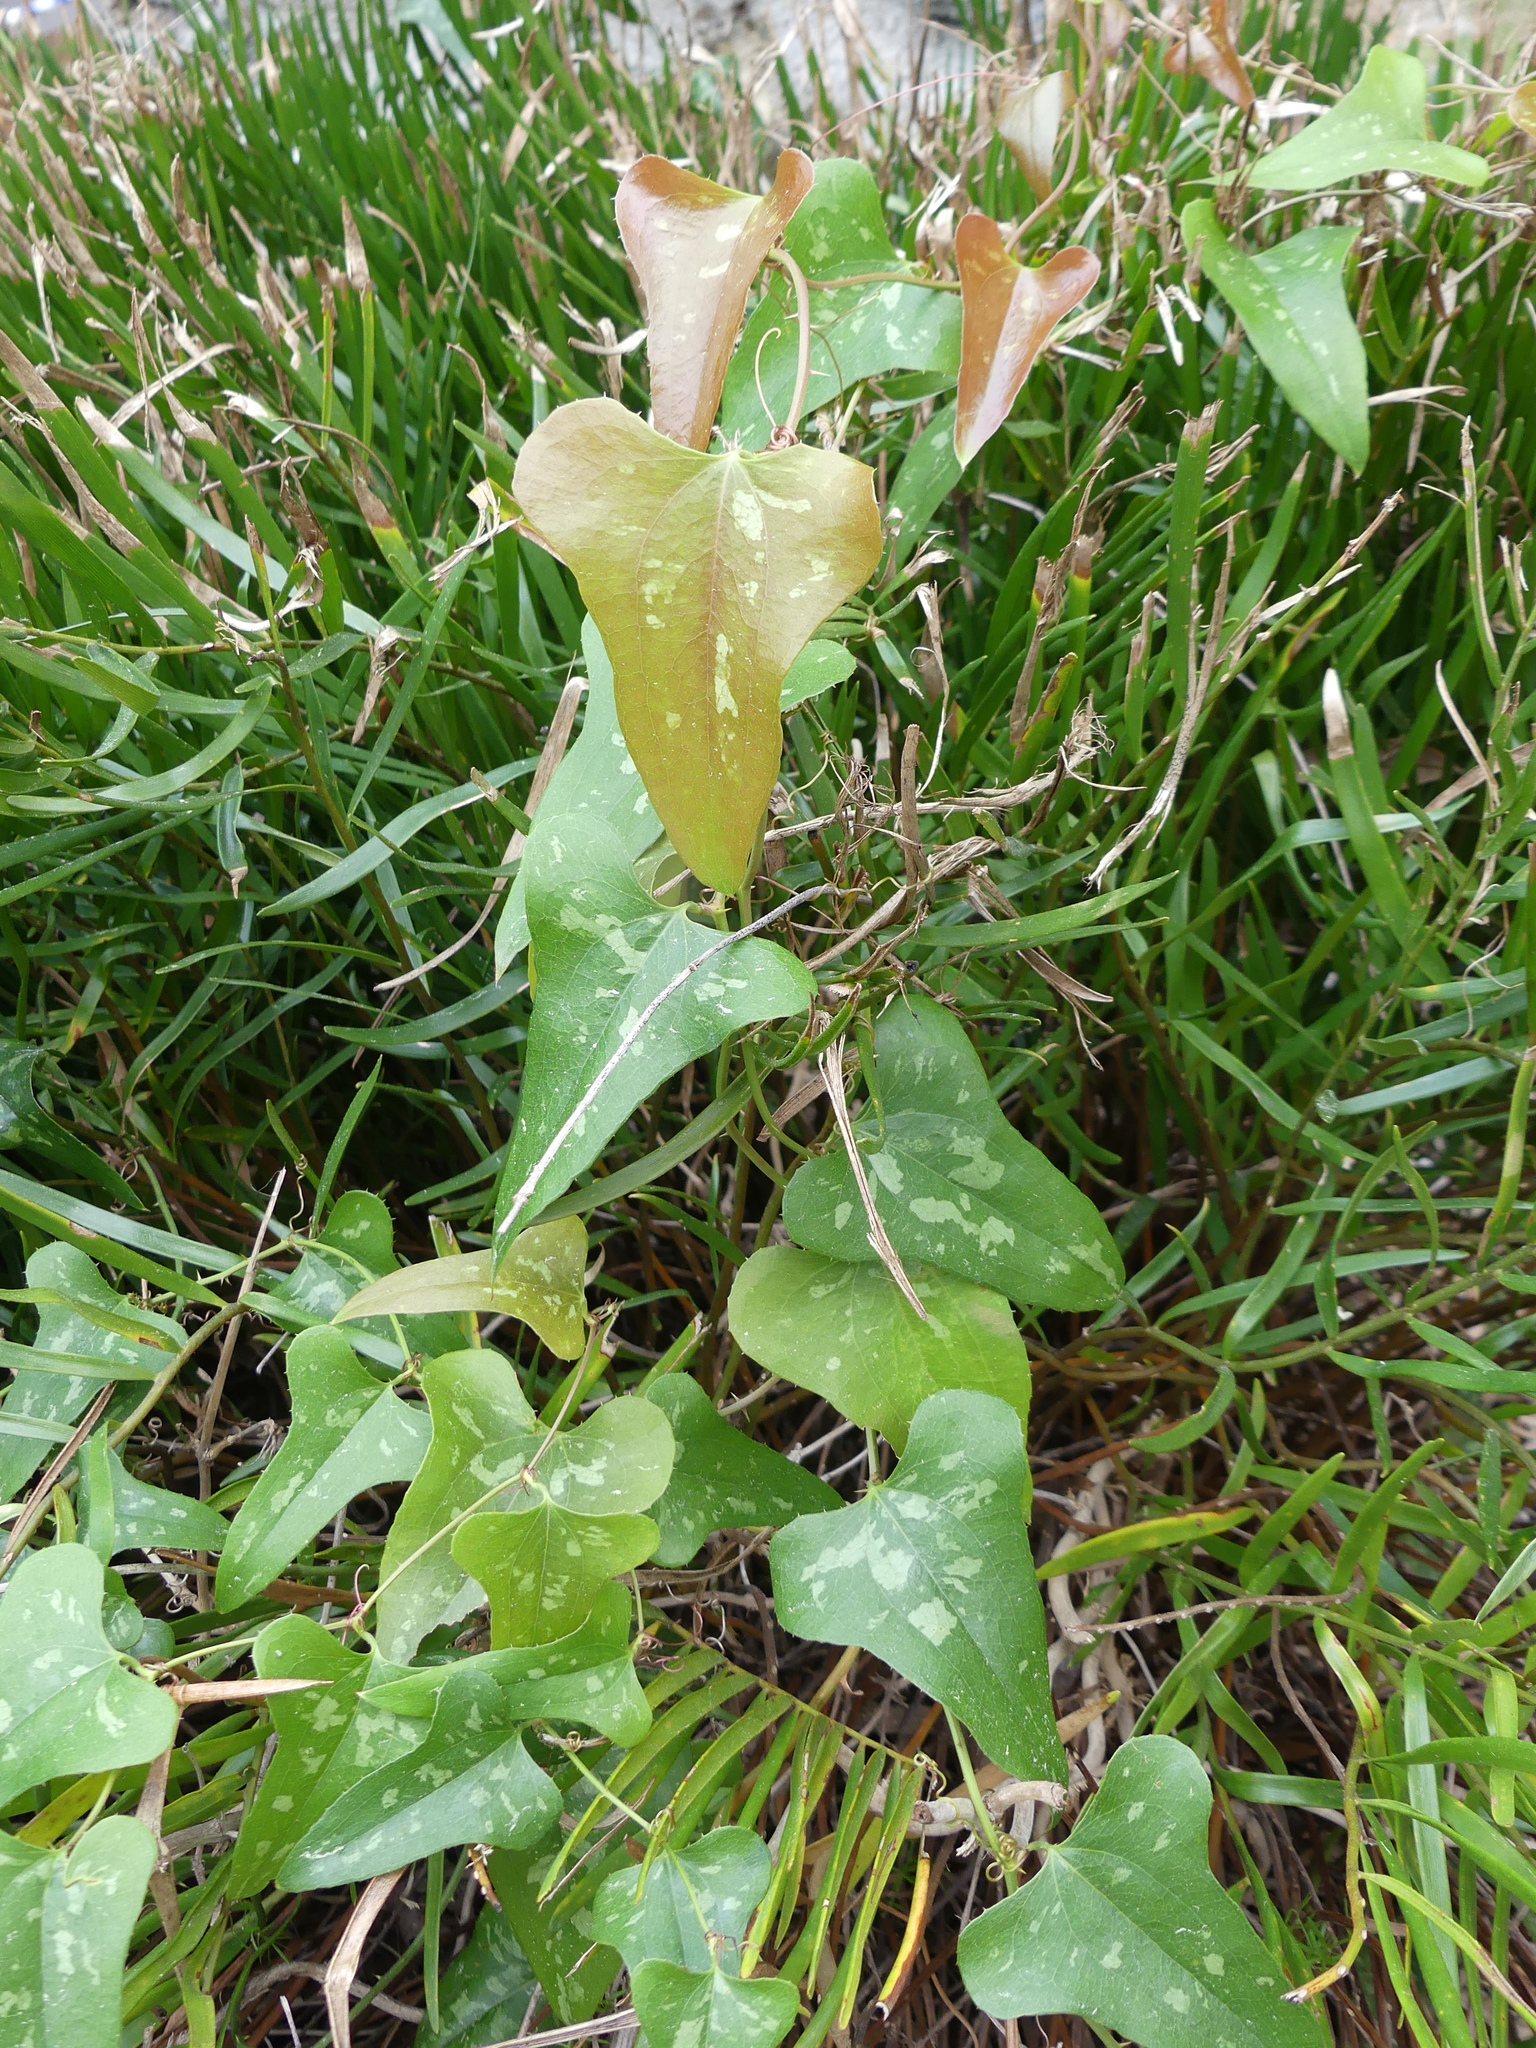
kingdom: Plantae
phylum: Tracheophyta
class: Liliopsida
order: Liliales
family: Smilacaceae
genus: Smilax
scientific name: Smilax bona-nox
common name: Catbrier
